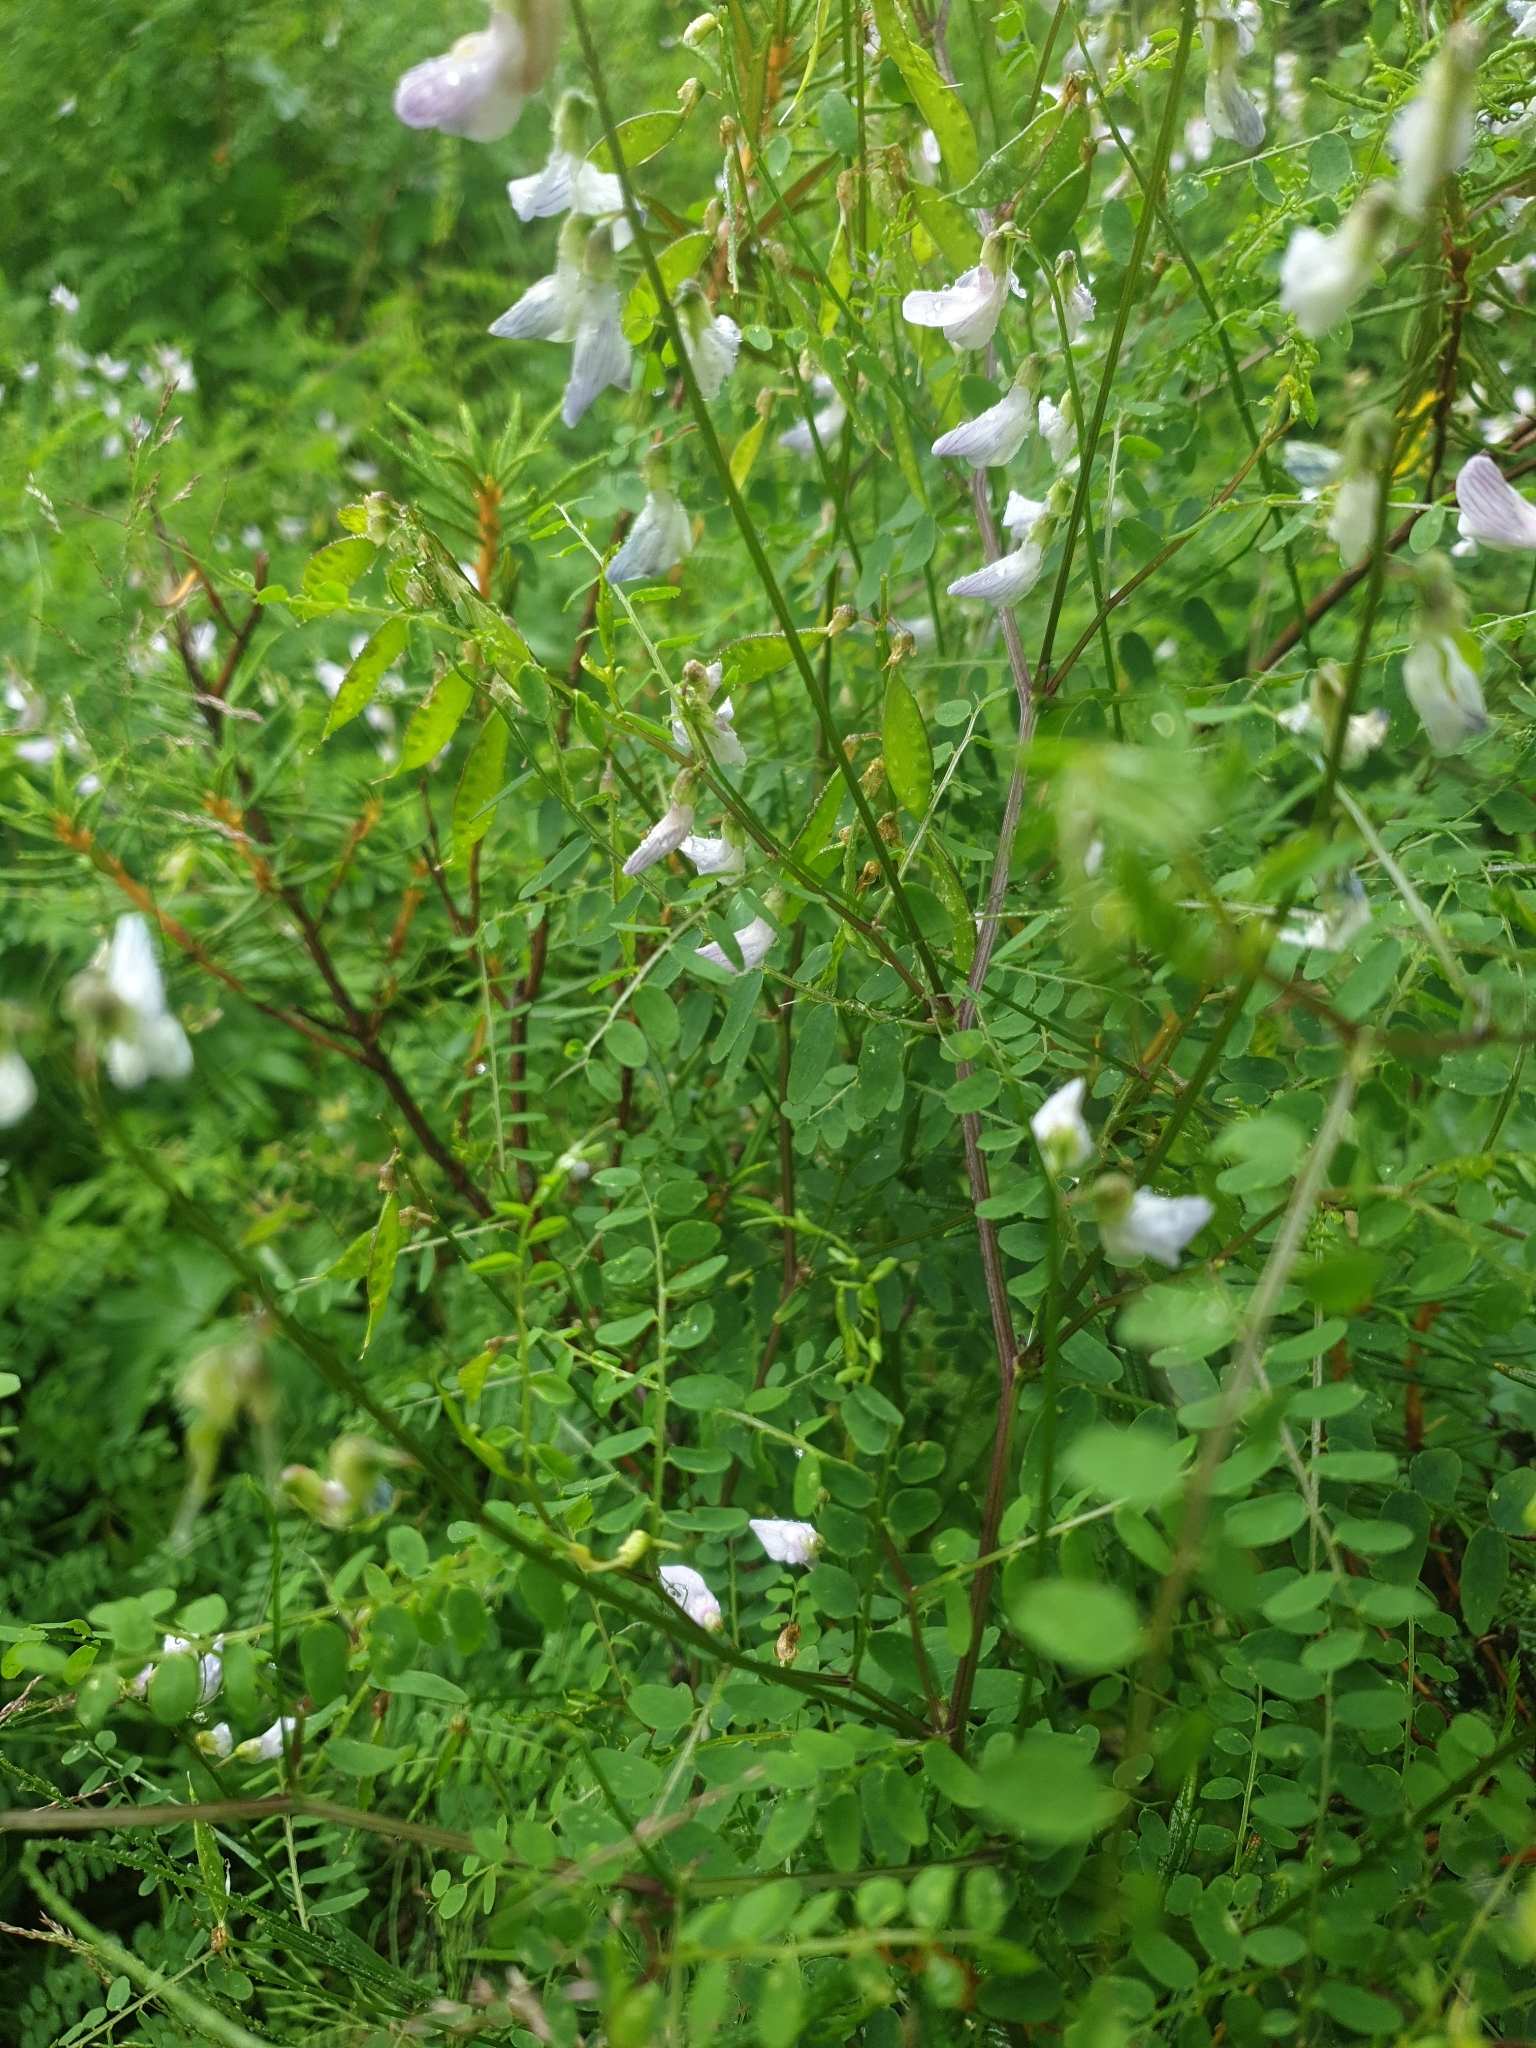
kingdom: Plantae
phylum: Tracheophyta
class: Magnoliopsida
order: Fabales
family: Fabaceae
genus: Vicia
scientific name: Vicia sylvatica
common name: Wood vetch
